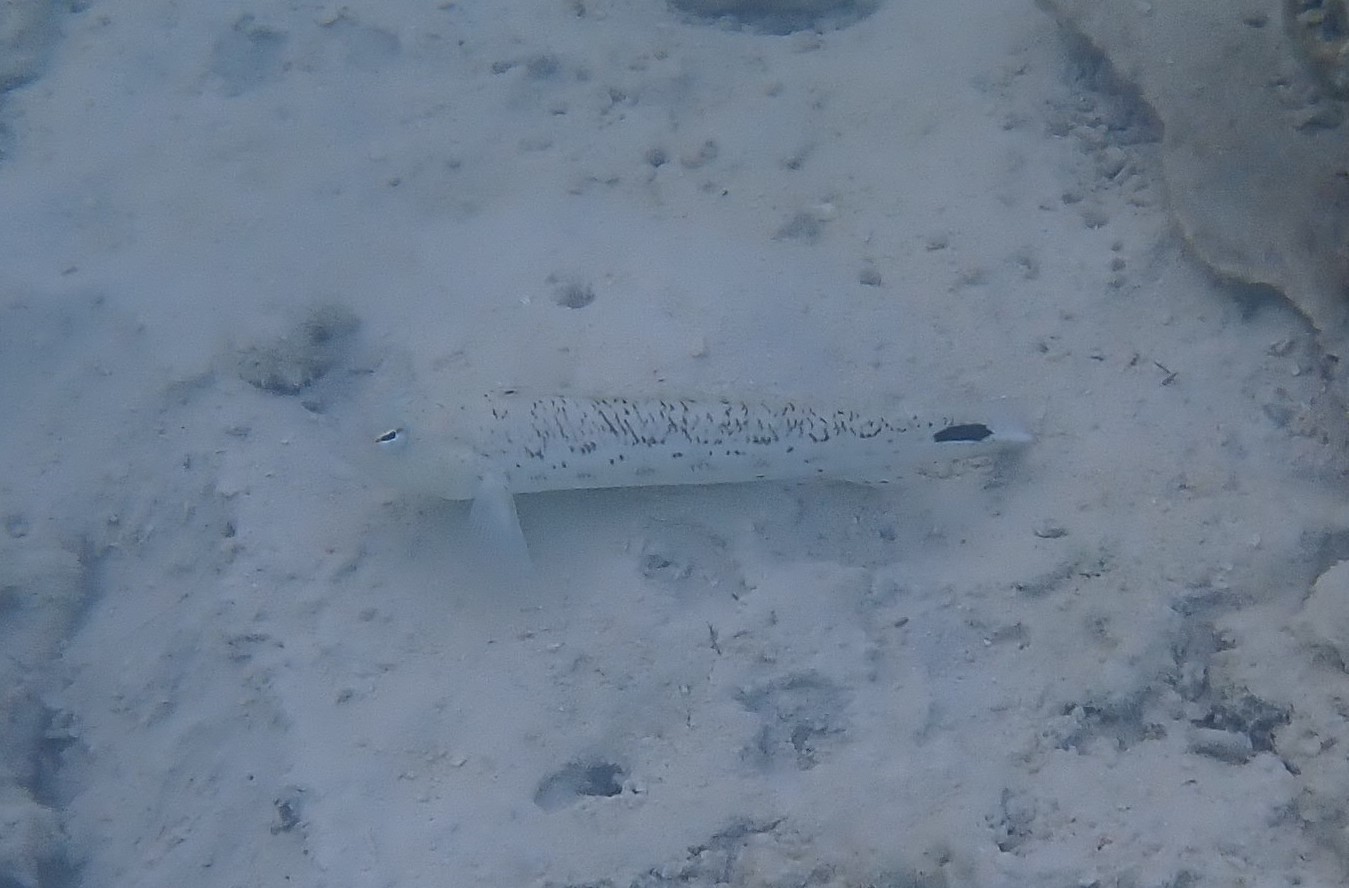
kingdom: Animalia
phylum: Chordata
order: Perciformes
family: Pinguipedidae
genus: Parapercis
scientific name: Parapercis hexophtalma
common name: Speckled sandperch
